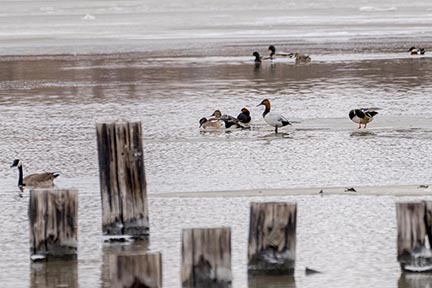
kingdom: Animalia
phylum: Chordata
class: Aves
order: Anseriformes
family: Anatidae
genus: Aythya
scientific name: Aythya valisineria
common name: Canvasback
